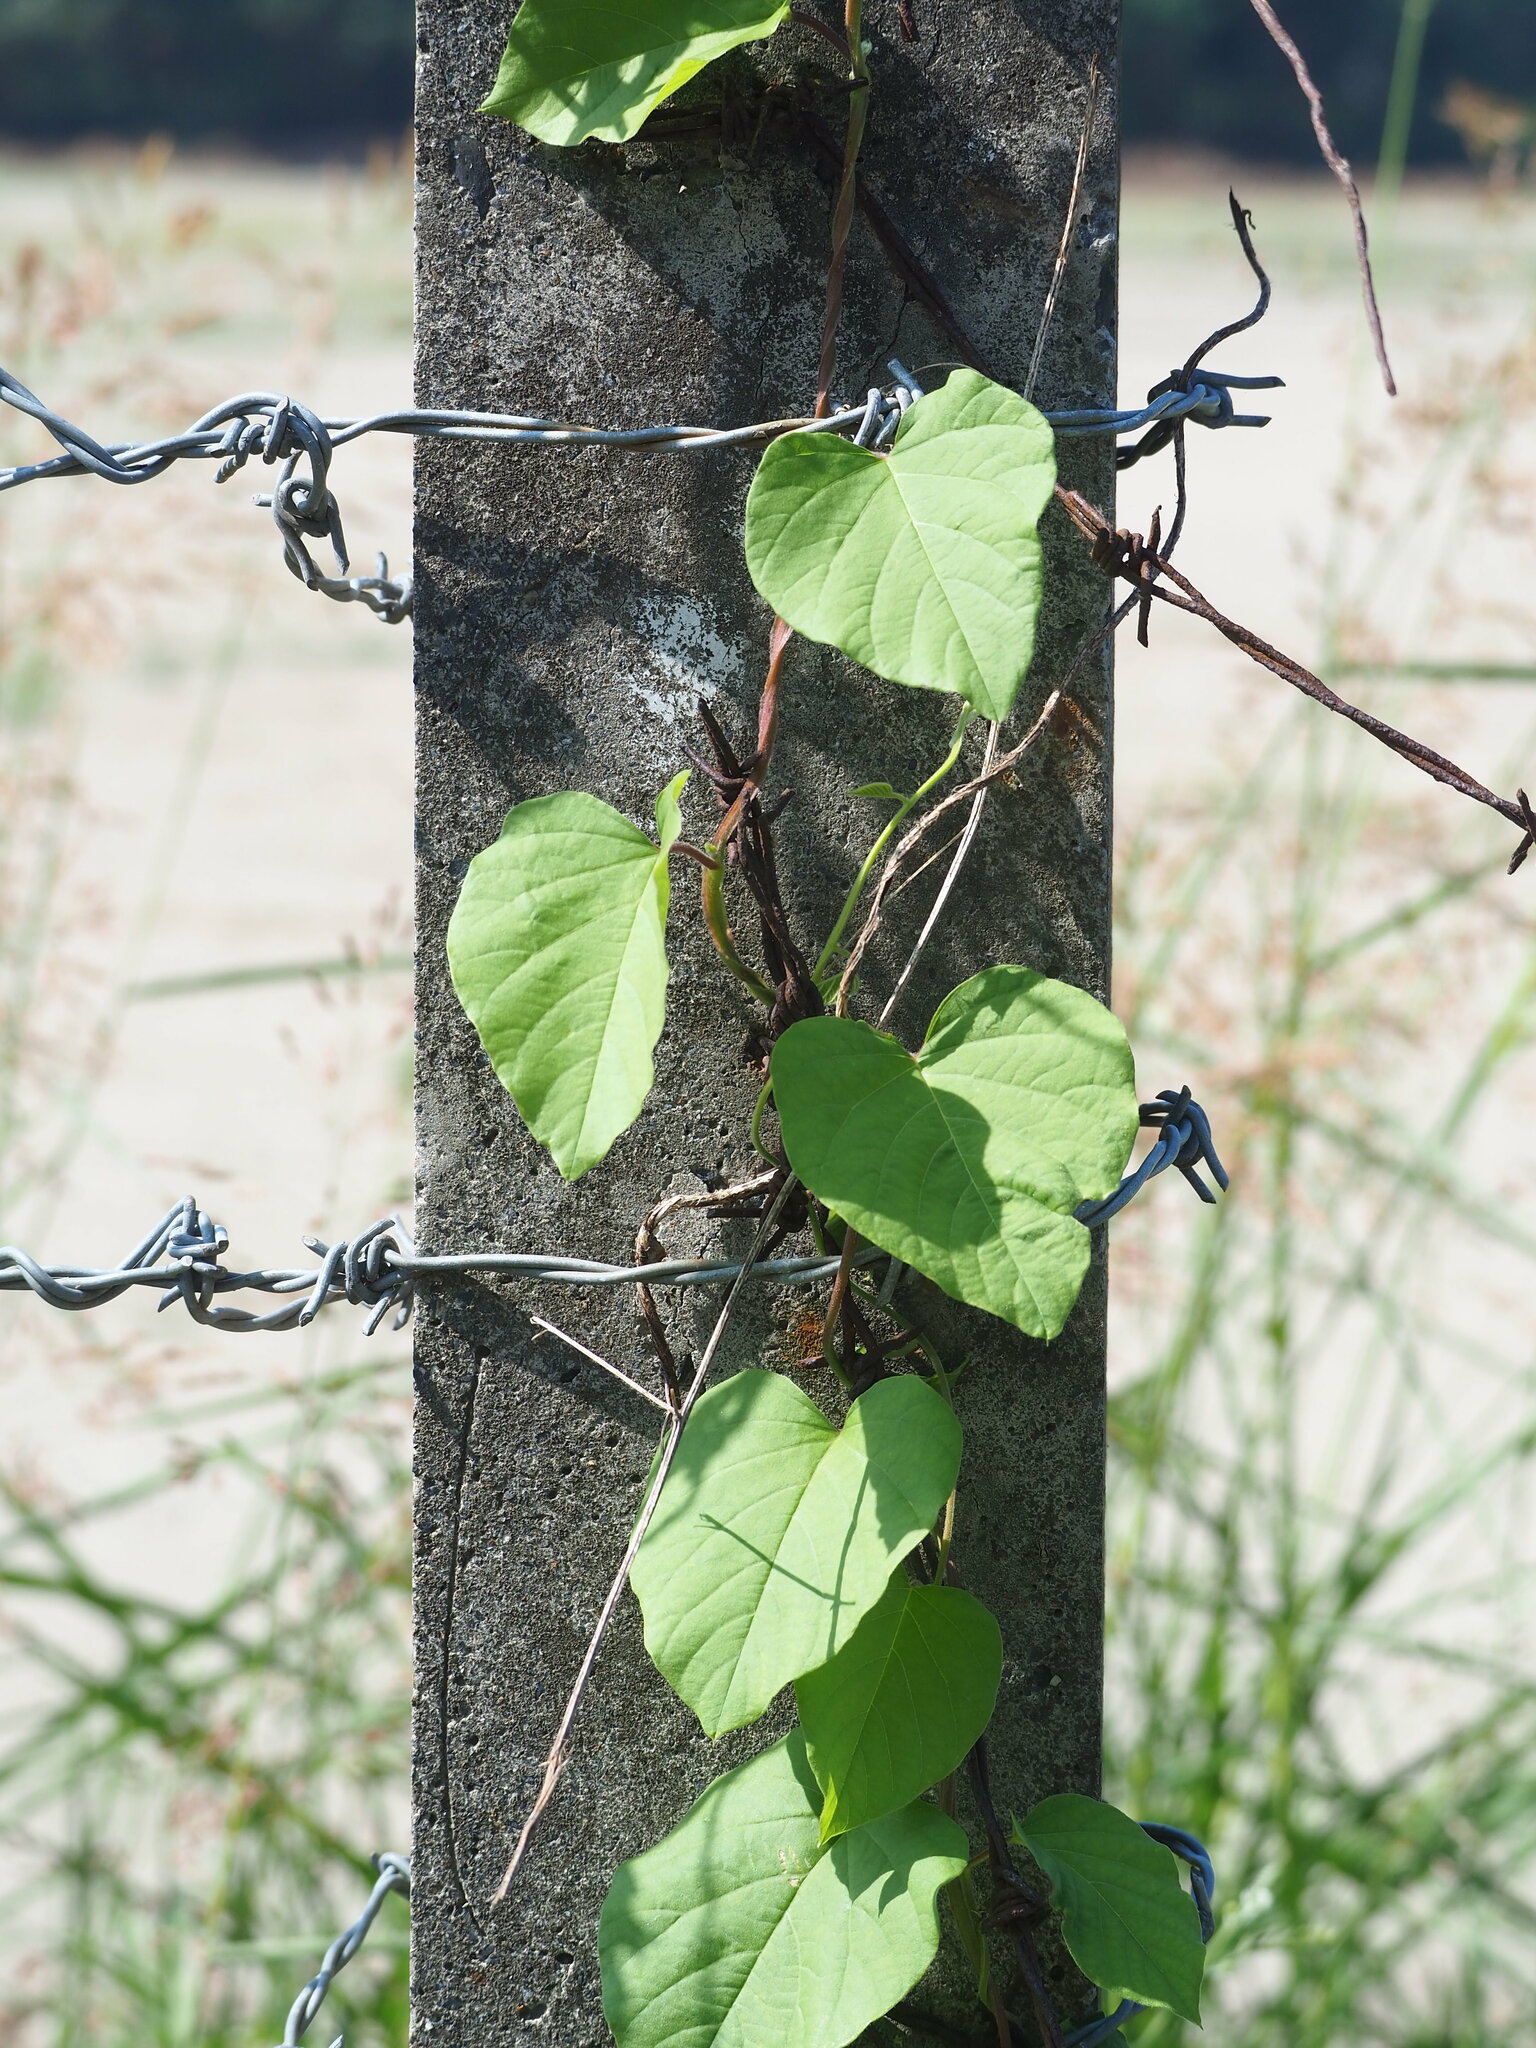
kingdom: Plantae
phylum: Tracheophyta
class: Magnoliopsida
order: Solanales
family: Convolvulaceae
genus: Operculina
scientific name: Operculina turpethum
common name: Transparent wood-rose
